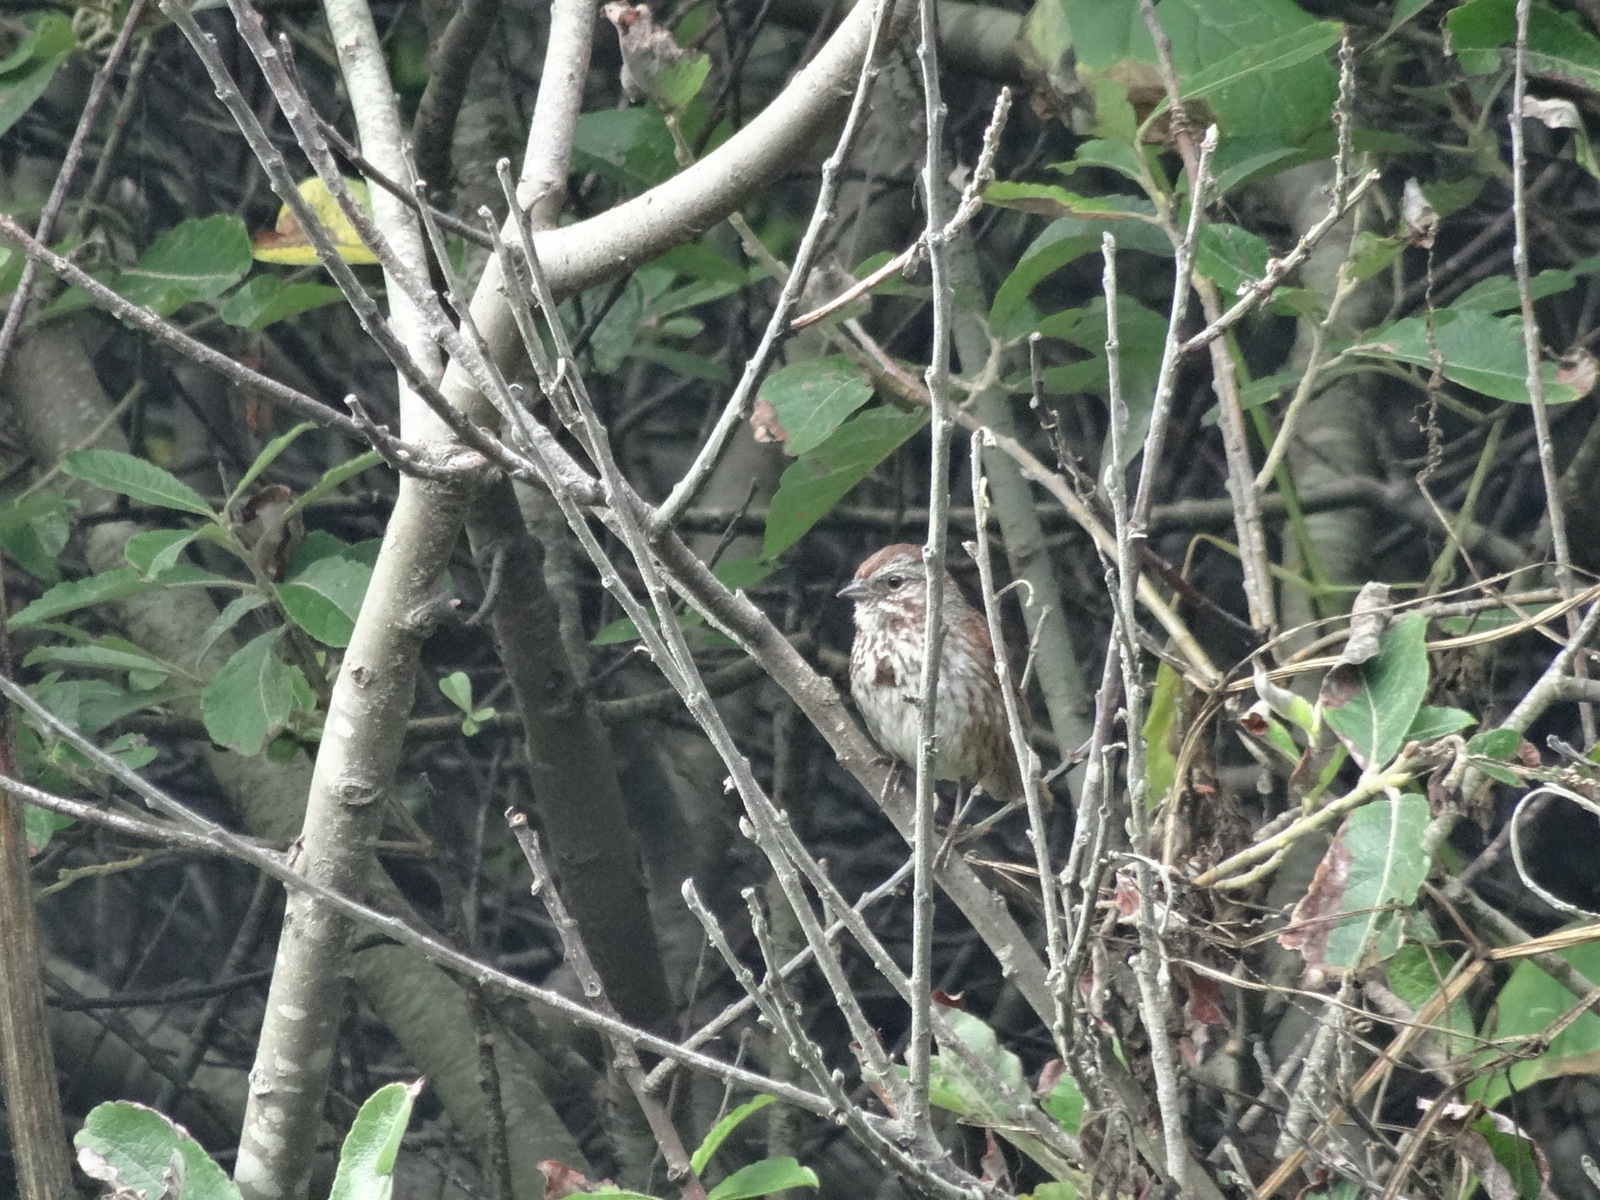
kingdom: Animalia
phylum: Chordata
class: Aves
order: Passeriformes
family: Passerellidae
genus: Melospiza
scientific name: Melospiza melodia
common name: Song sparrow
